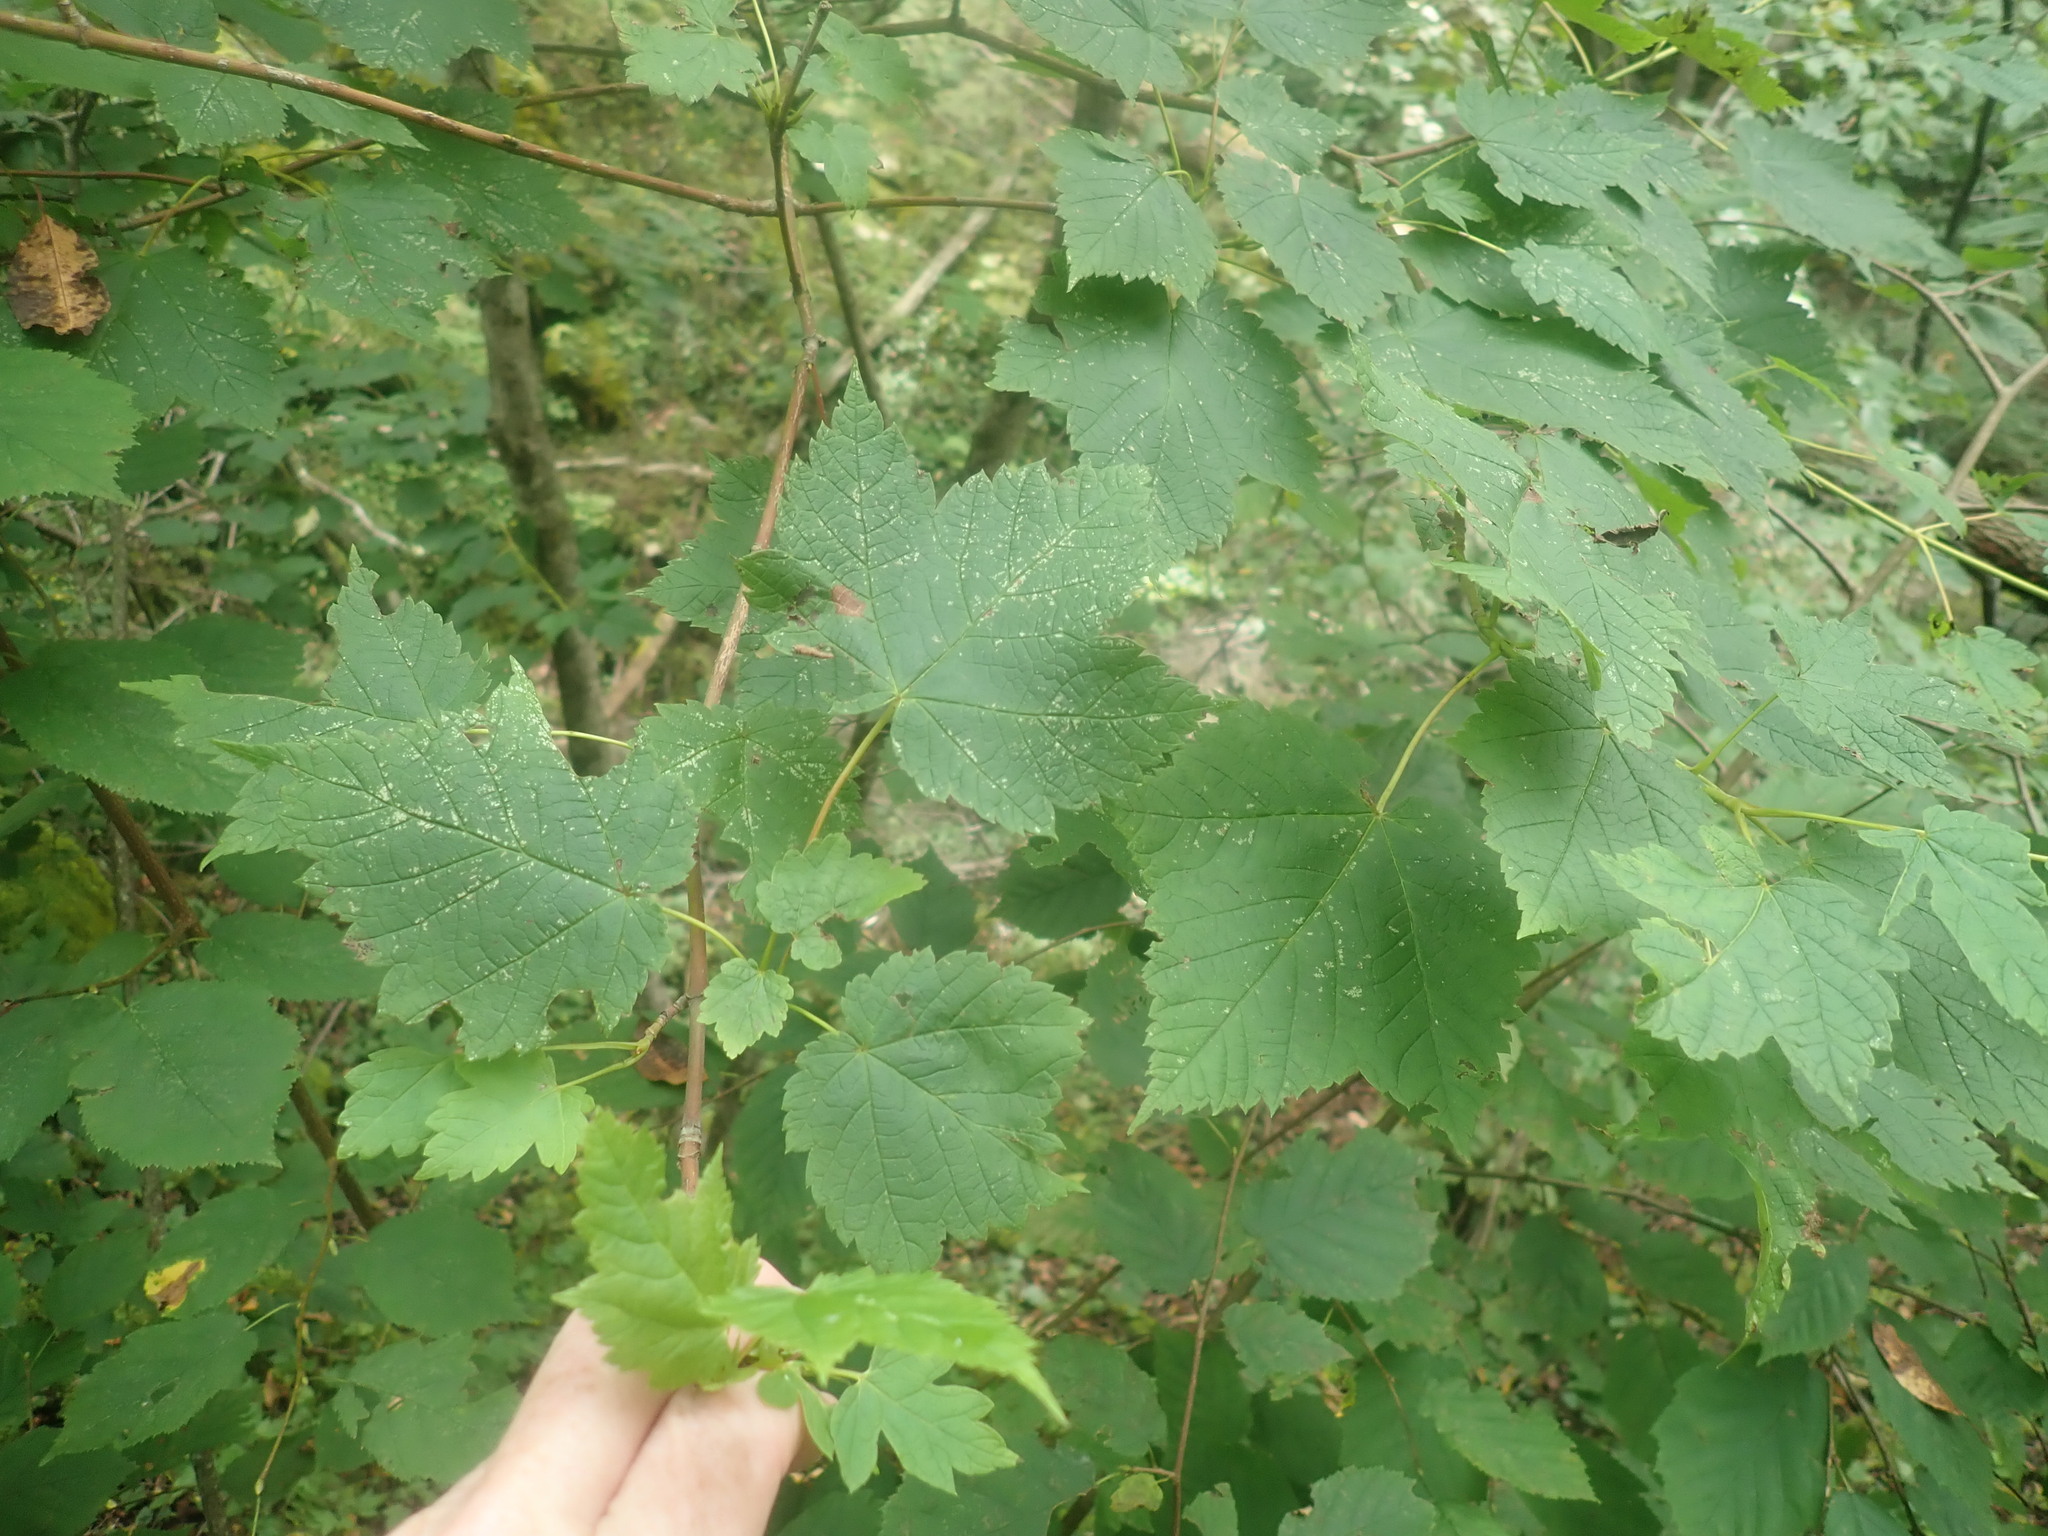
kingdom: Plantae
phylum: Tracheophyta
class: Magnoliopsida
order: Sapindales
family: Sapindaceae
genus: Acer
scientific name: Acer spicatum
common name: Mountain maple
